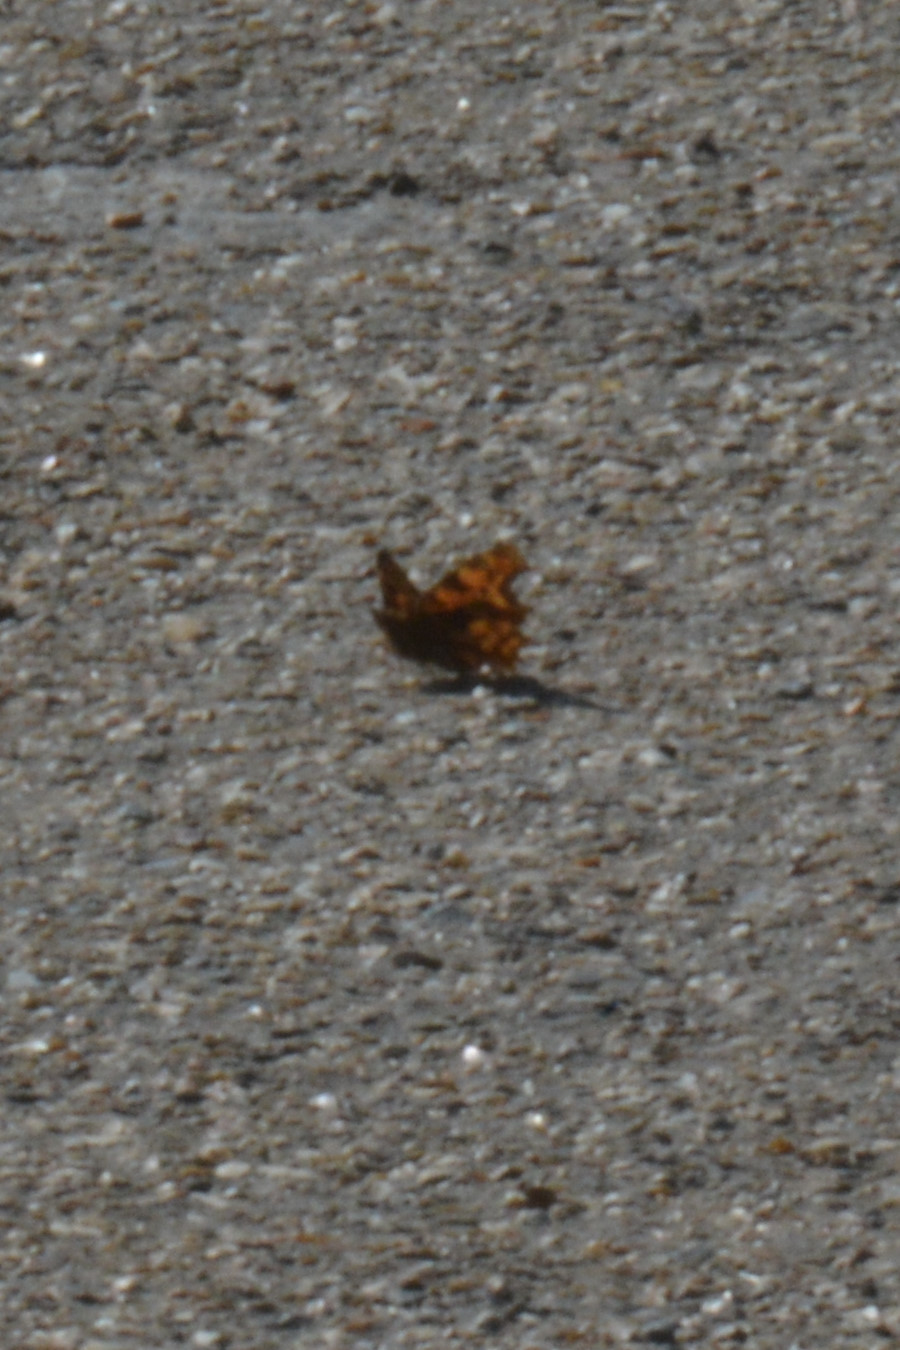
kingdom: Animalia
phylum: Arthropoda
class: Insecta
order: Lepidoptera
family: Nymphalidae
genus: Polygonia
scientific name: Polygonia c-album
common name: Comma
